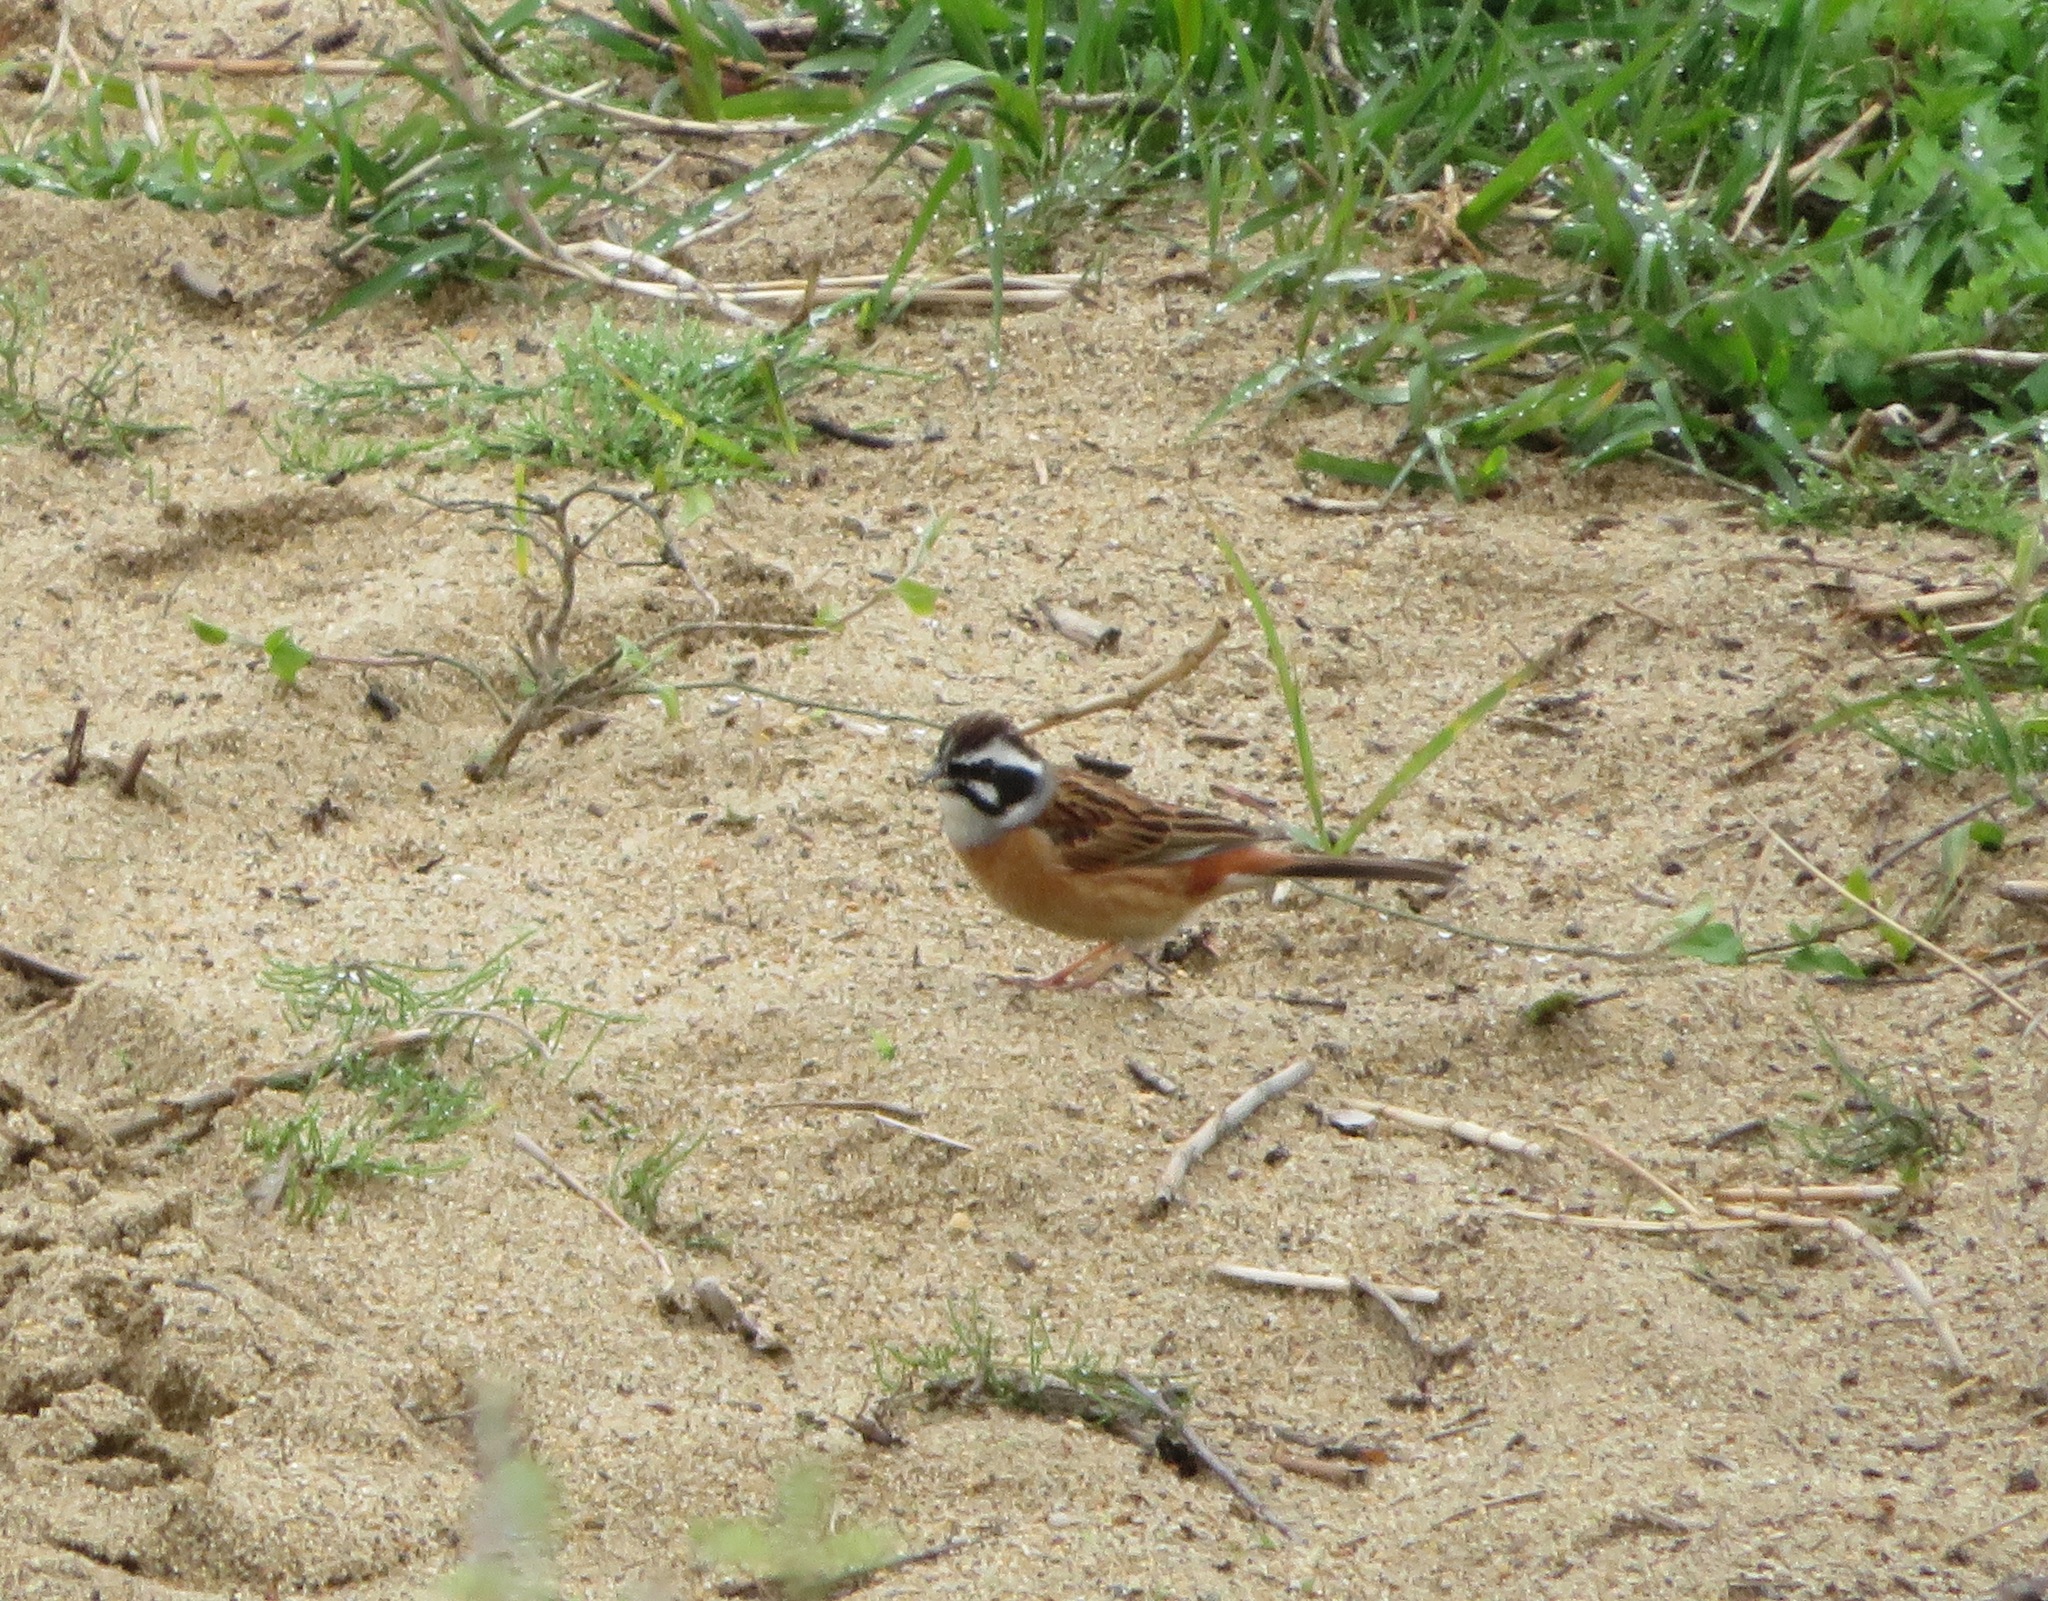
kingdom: Animalia
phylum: Chordata
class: Aves
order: Passeriformes
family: Emberizidae
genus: Emberiza
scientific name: Emberiza cioides
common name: Meadow bunting
